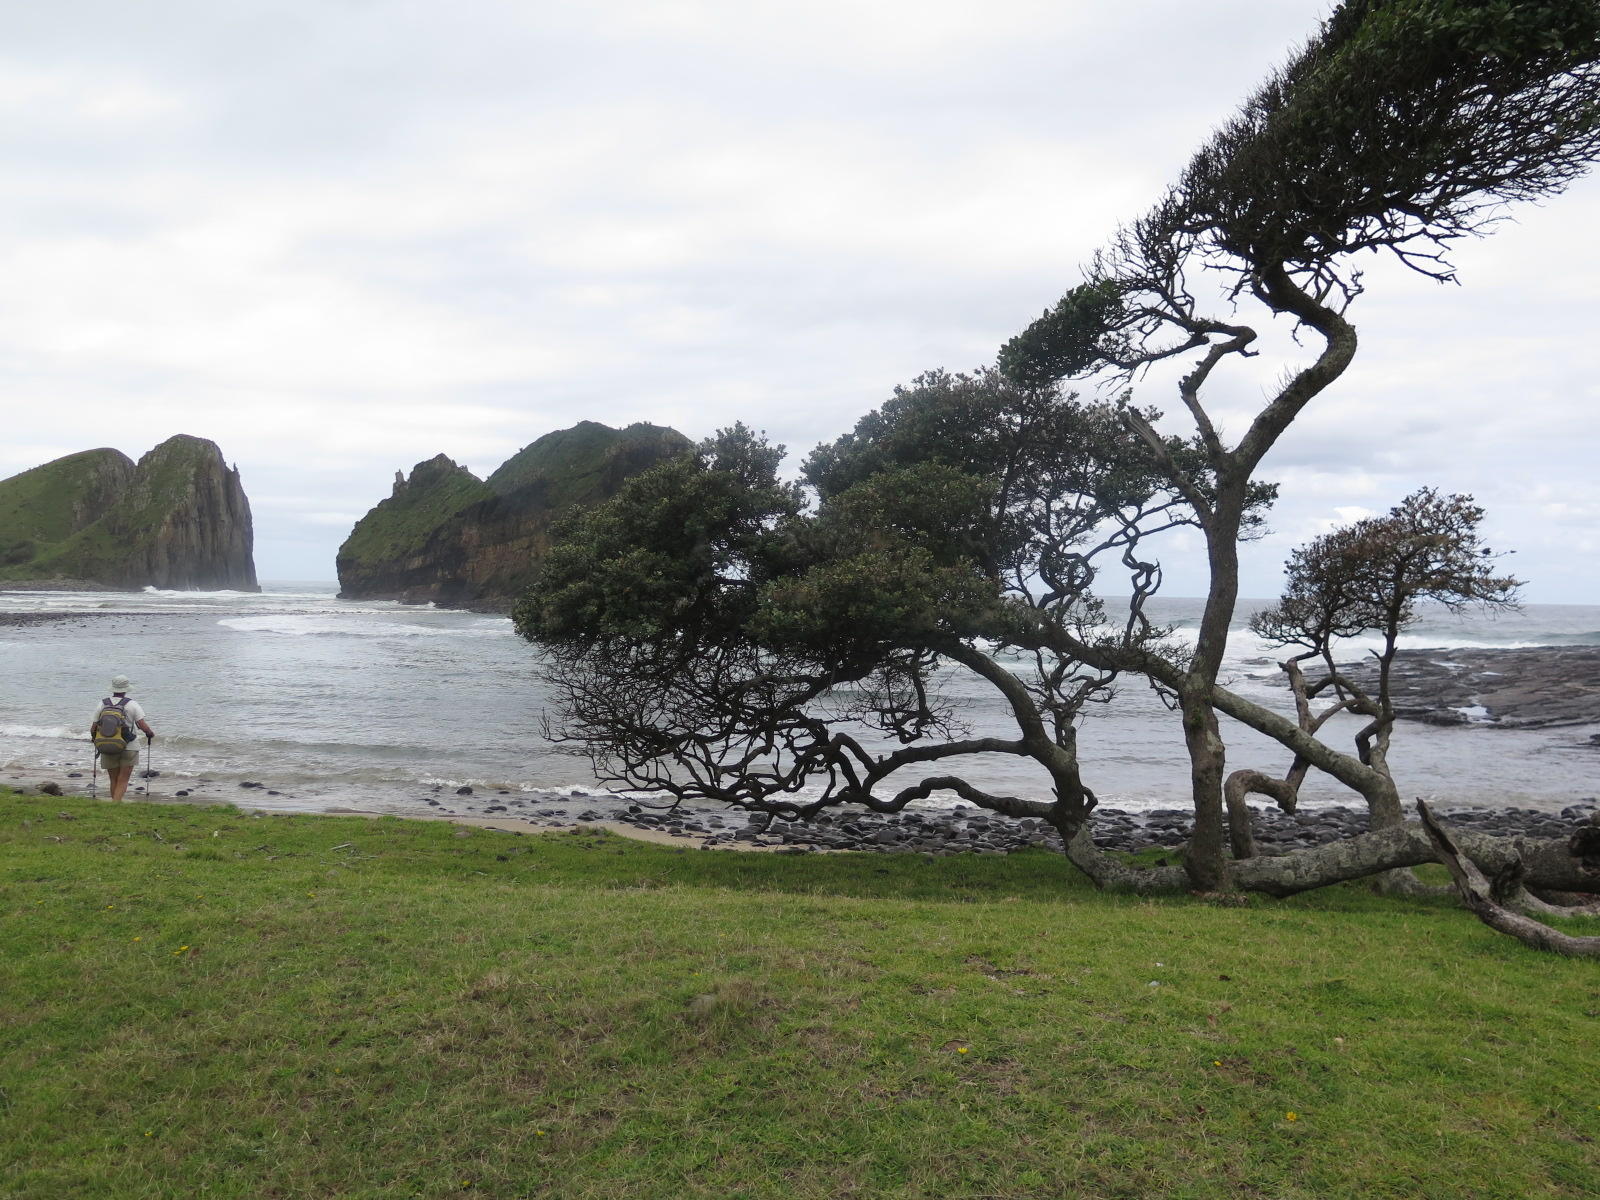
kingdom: Plantae
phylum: Tracheophyta
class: Magnoliopsida
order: Ericales
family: Sapotaceae
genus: Mimusops
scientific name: Mimusops caffra
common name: Coastal red milkwood
